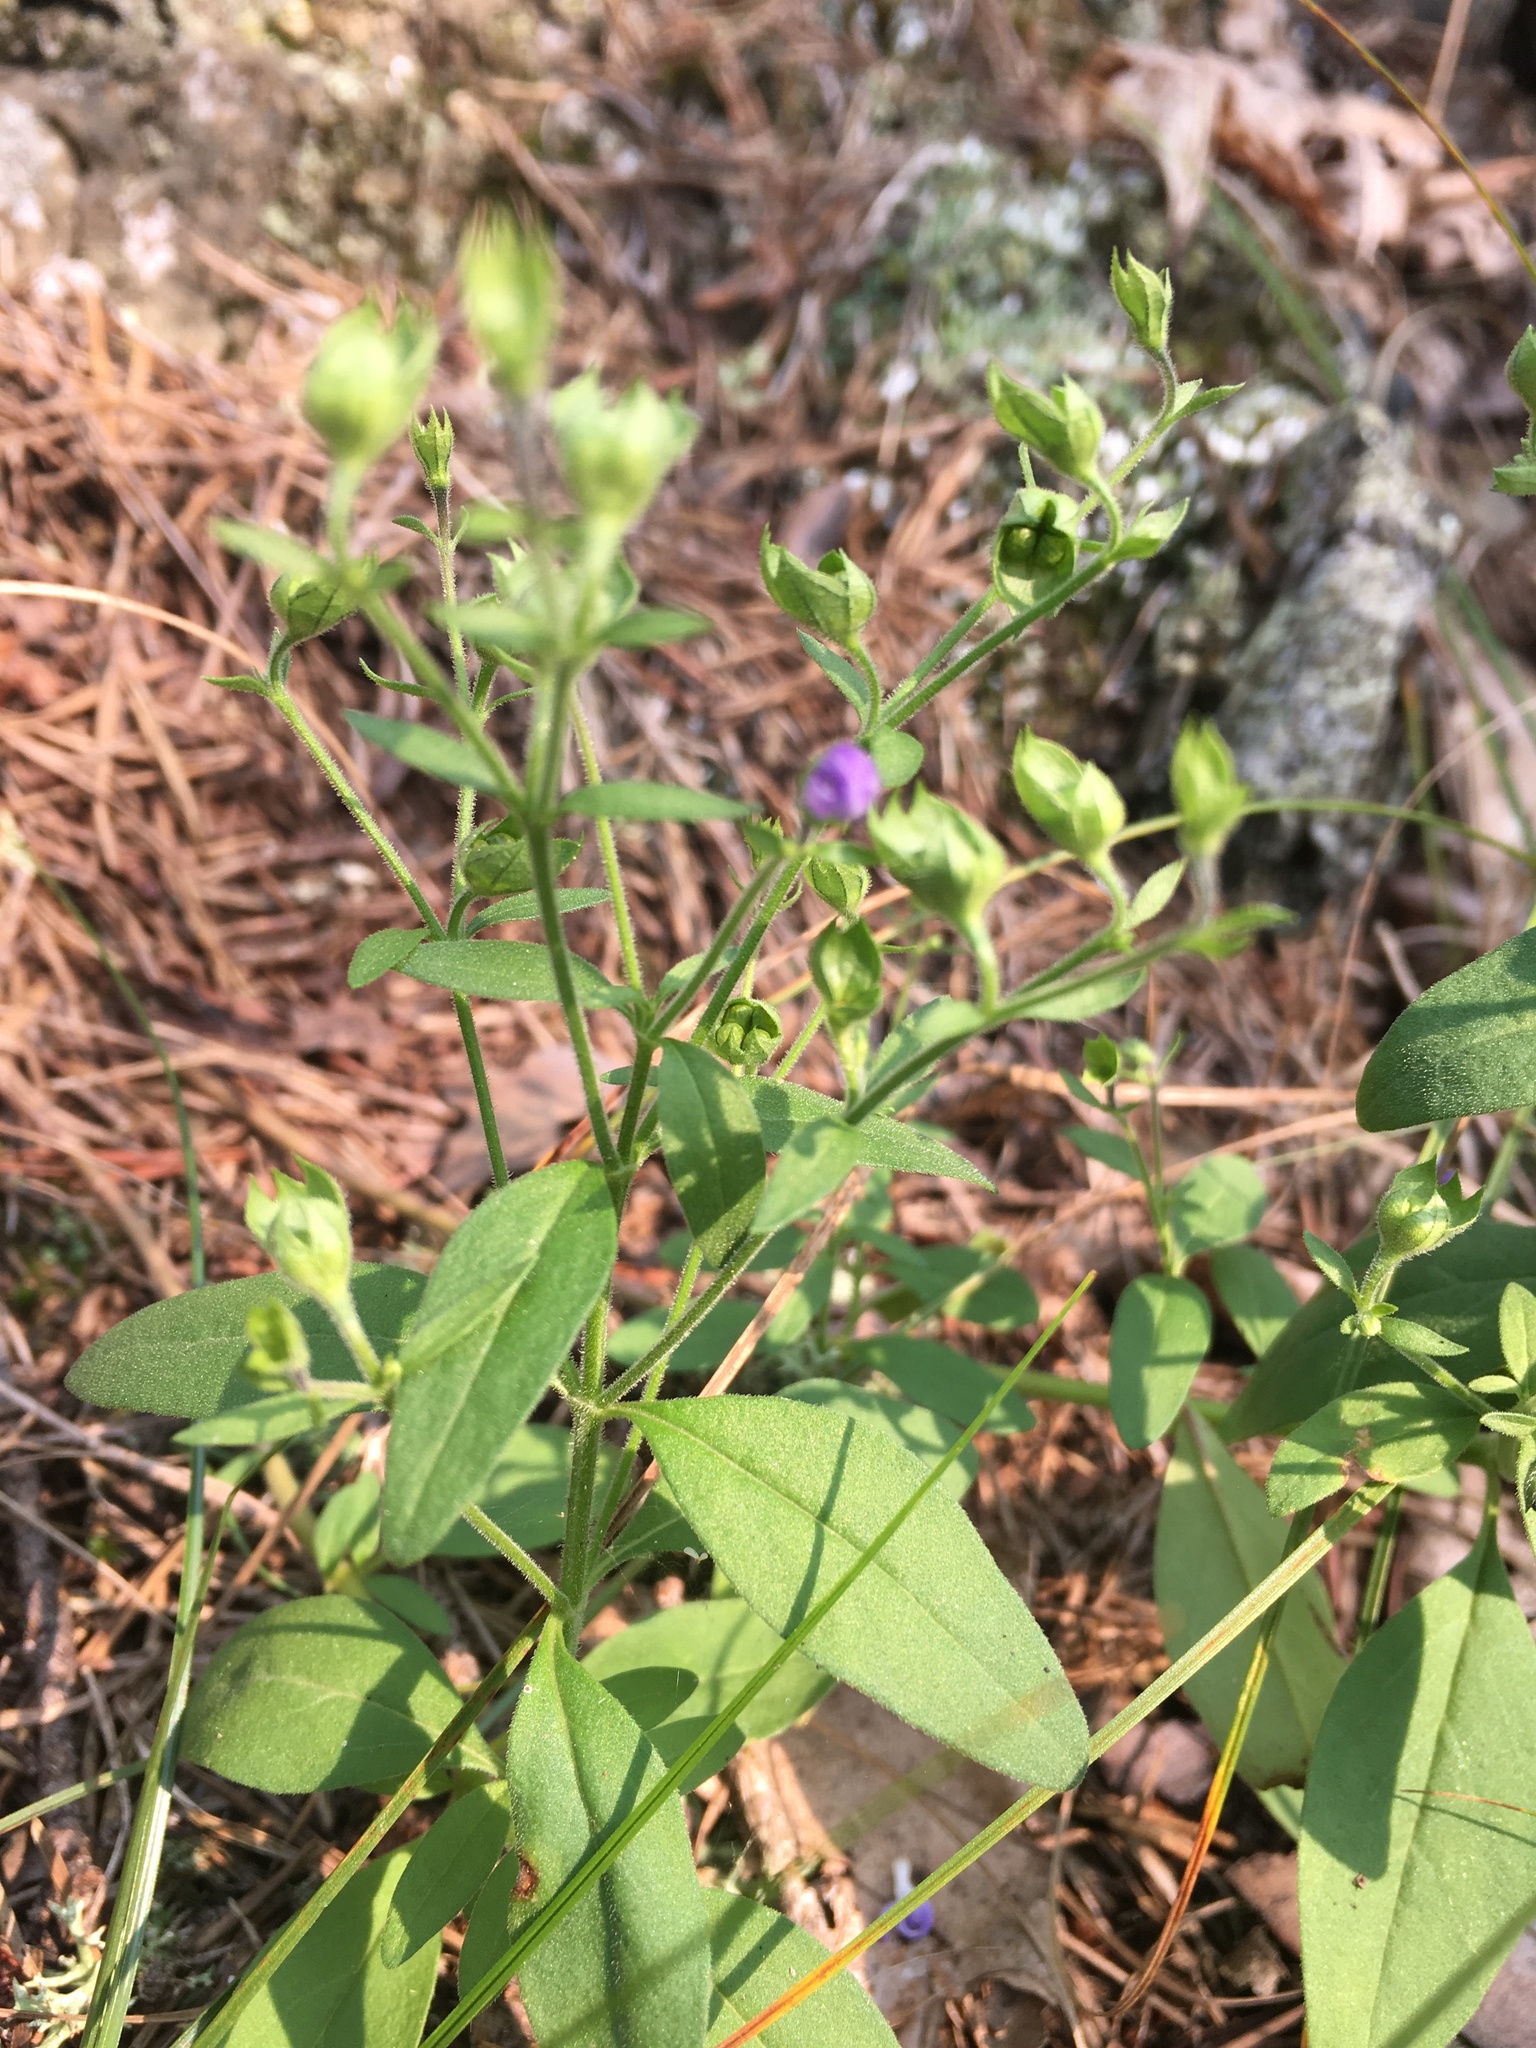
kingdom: Plantae
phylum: Tracheophyta
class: Magnoliopsida
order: Lamiales
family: Lamiaceae
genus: Trichostema
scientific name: Trichostema dichotomum
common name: Bastard pennyroyal
